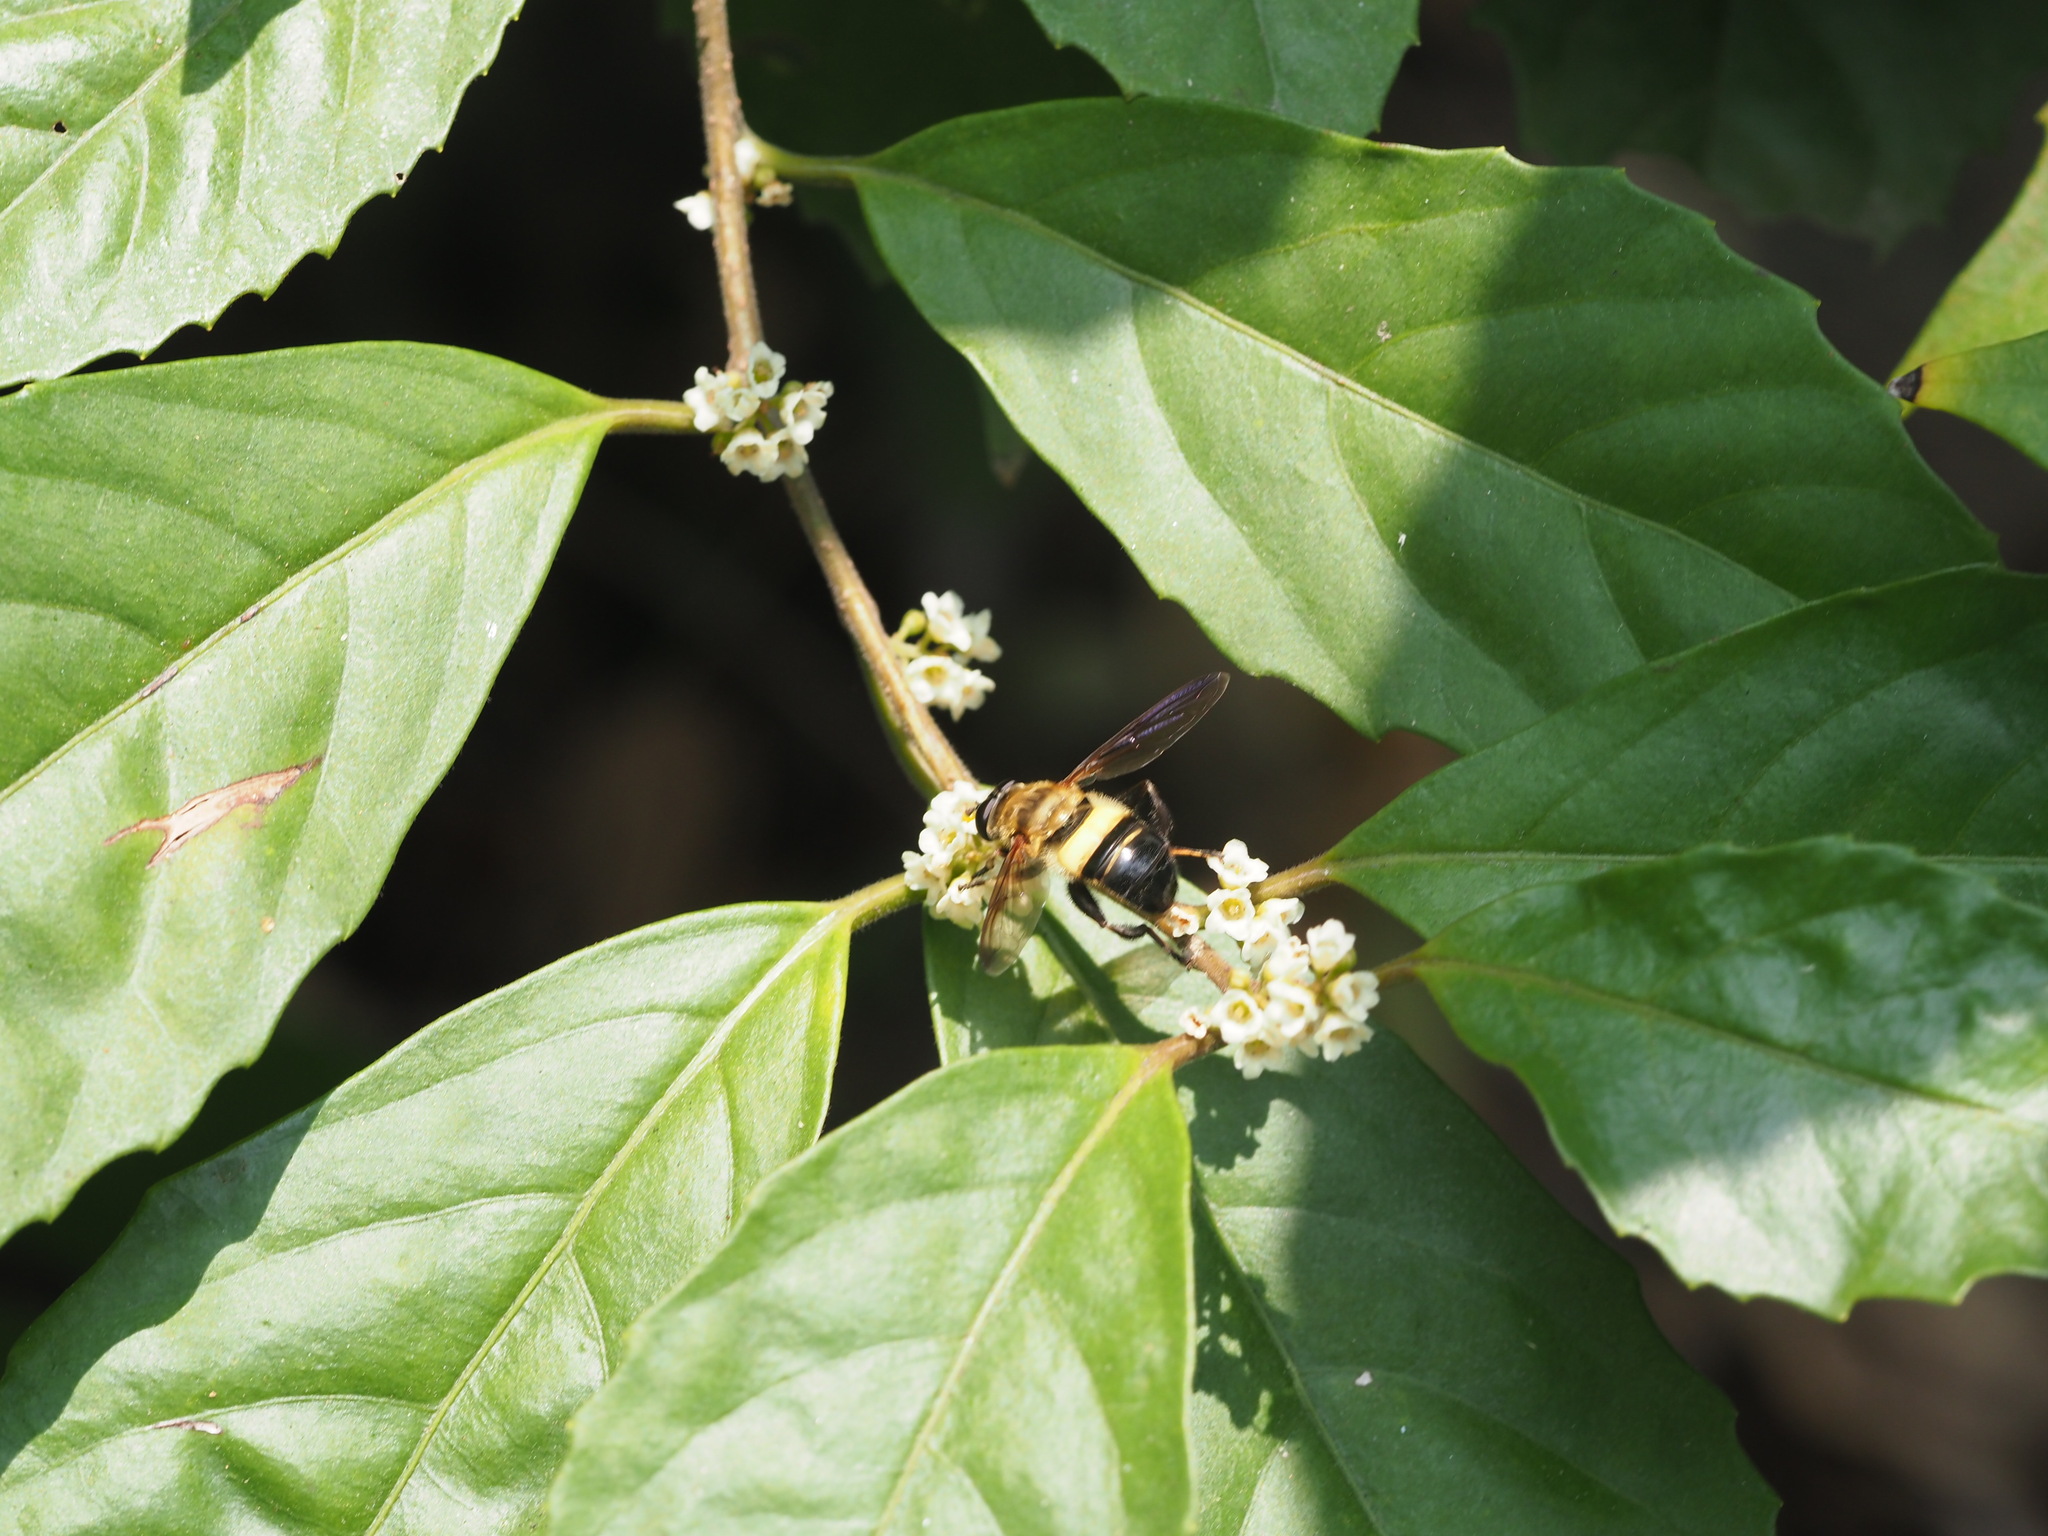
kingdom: Animalia
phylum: Arthropoda
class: Insecta
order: Diptera
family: Syrphidae
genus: Milesia
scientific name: Milesia balteata
